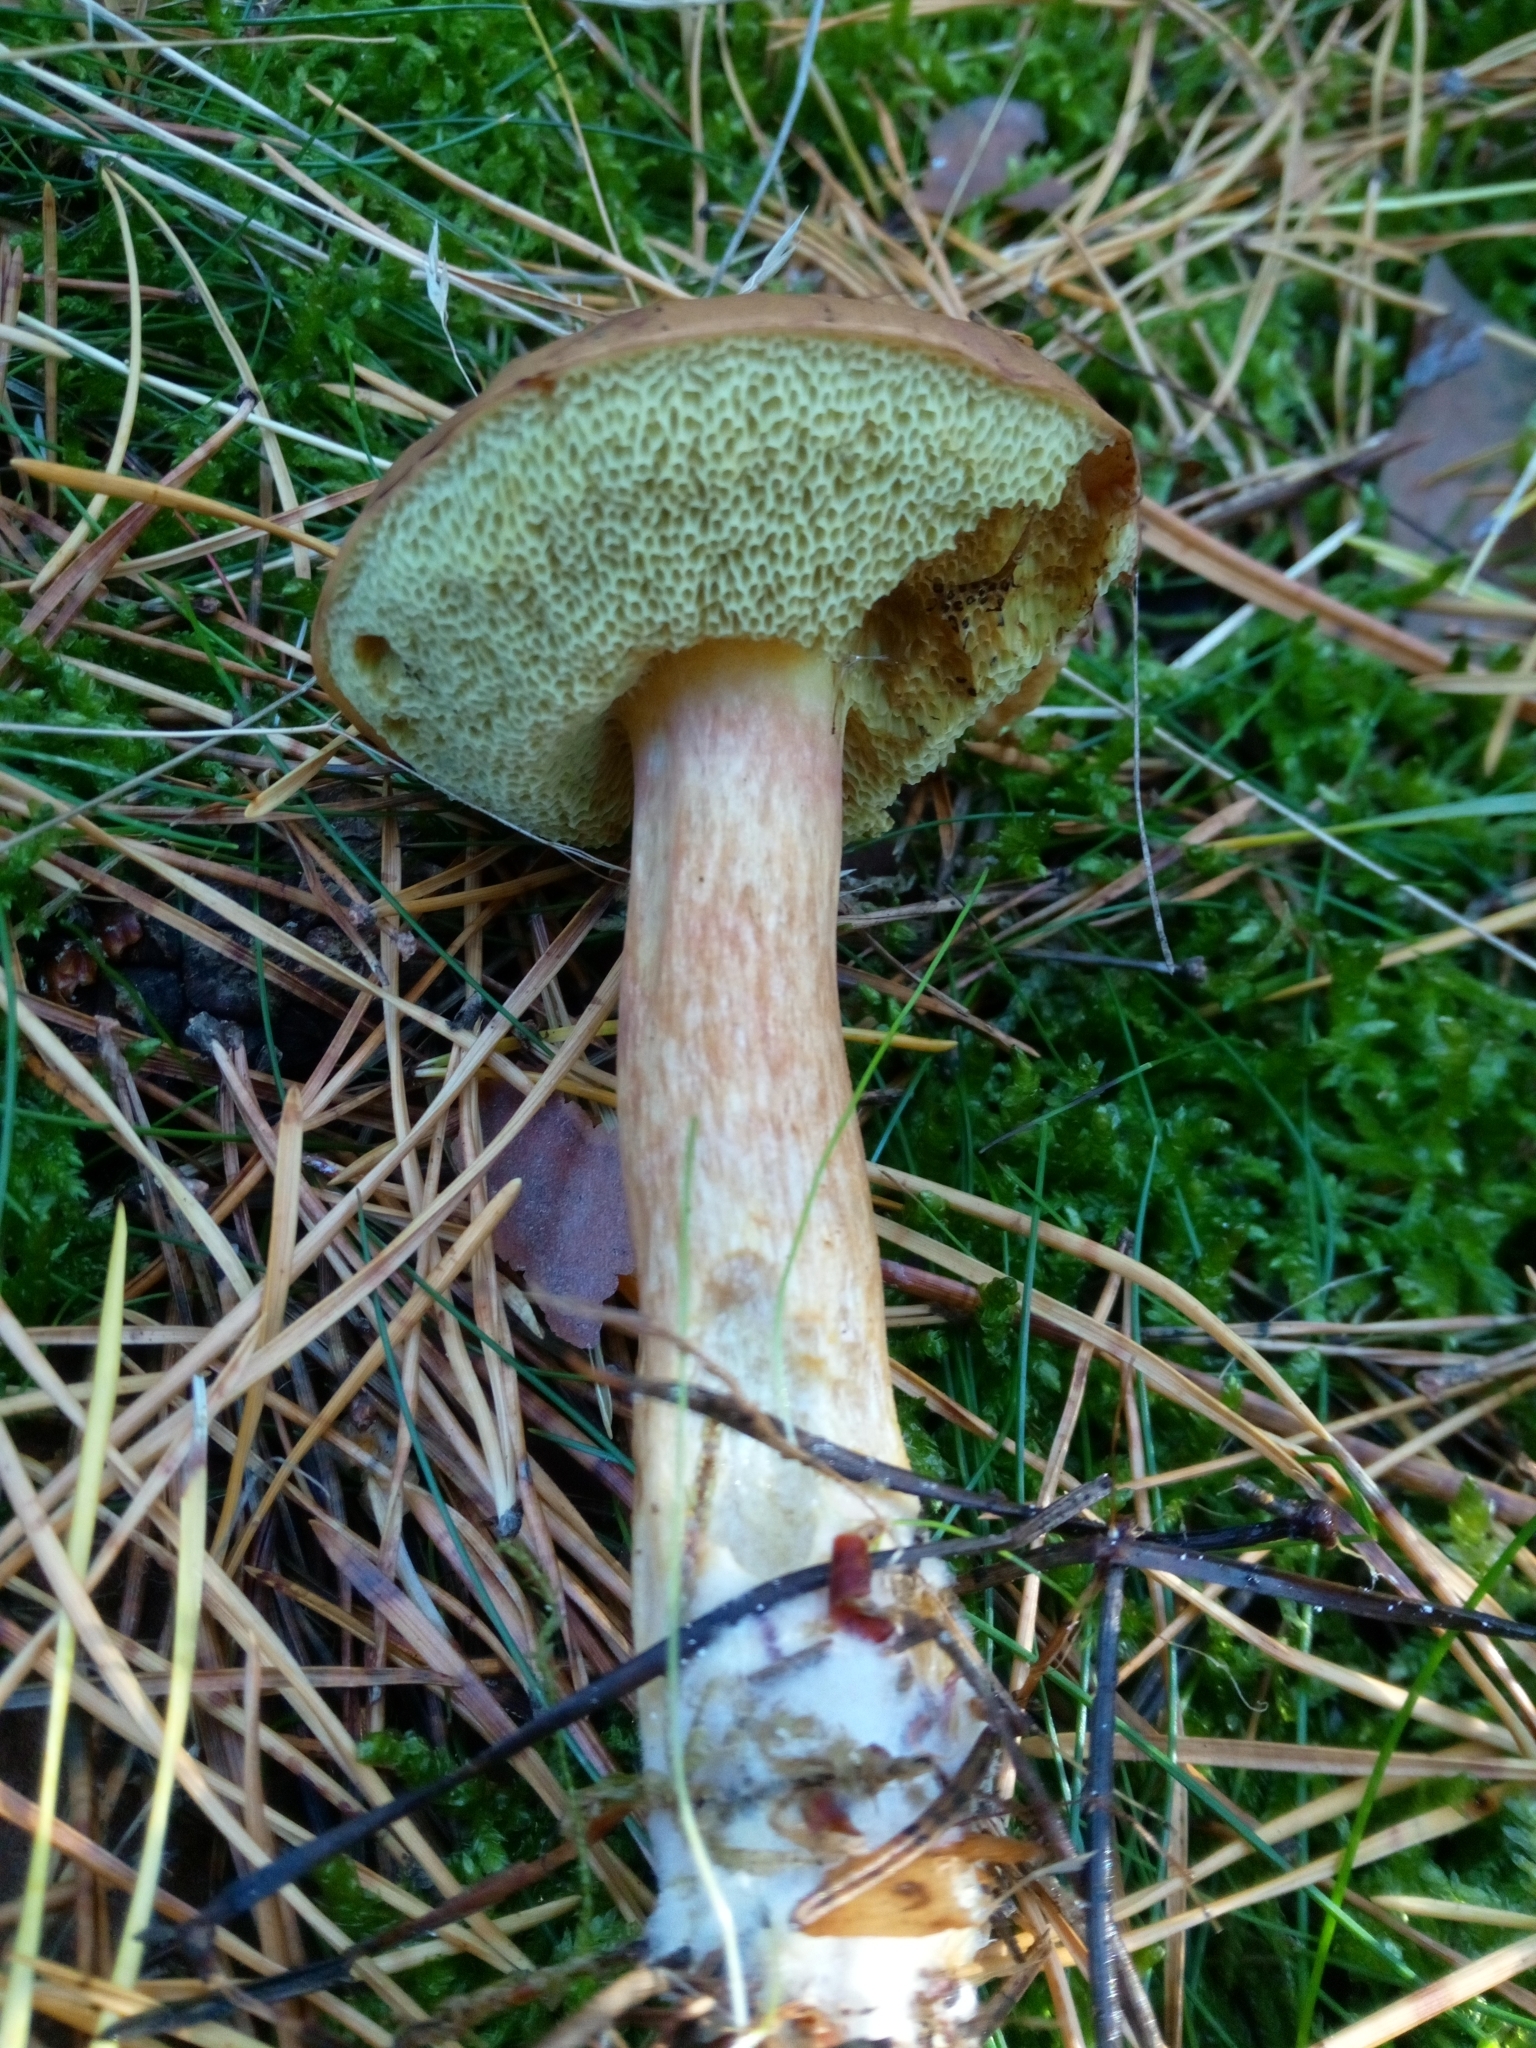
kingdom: Fungi
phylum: Basidiomycota
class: Agaricomycetes
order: Boletales
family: Boletaceae
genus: Imleria
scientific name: Imleria badia
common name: Bay bolete
